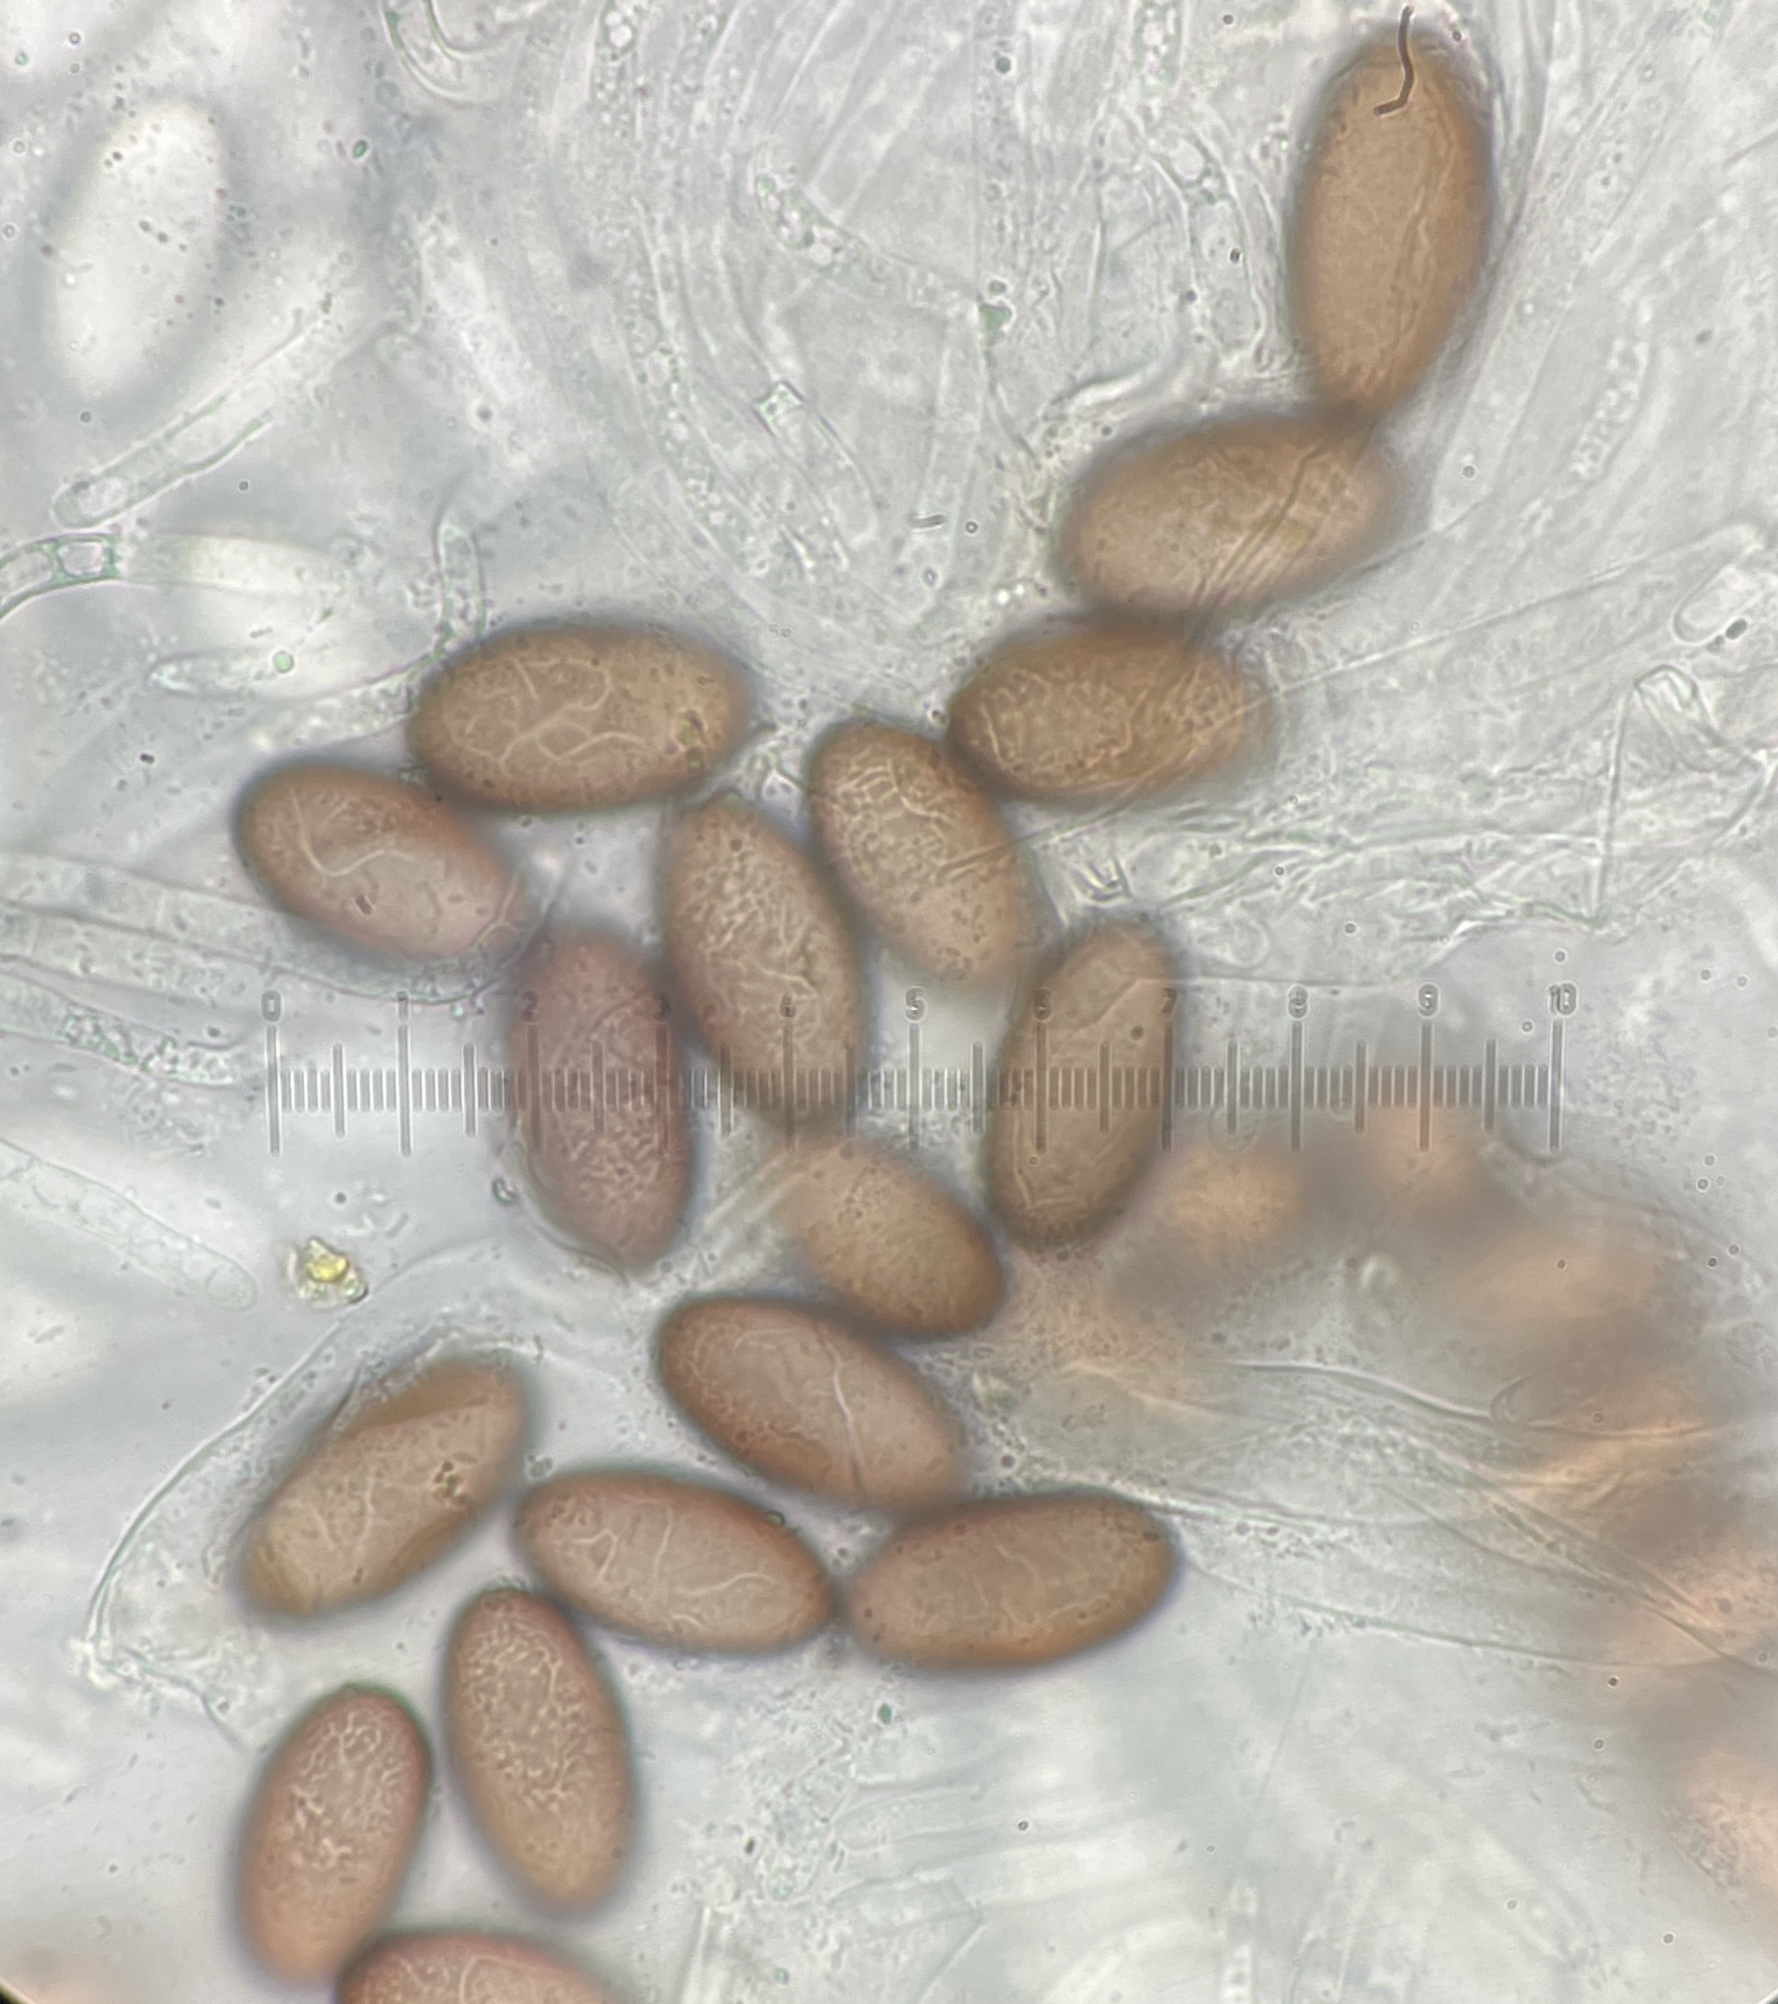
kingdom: Fungi
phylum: Ascomycota
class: Pezizomycetes
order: Pezizales
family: Ascobolaceae
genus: Ascobolus
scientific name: Ascobolus degluptus
